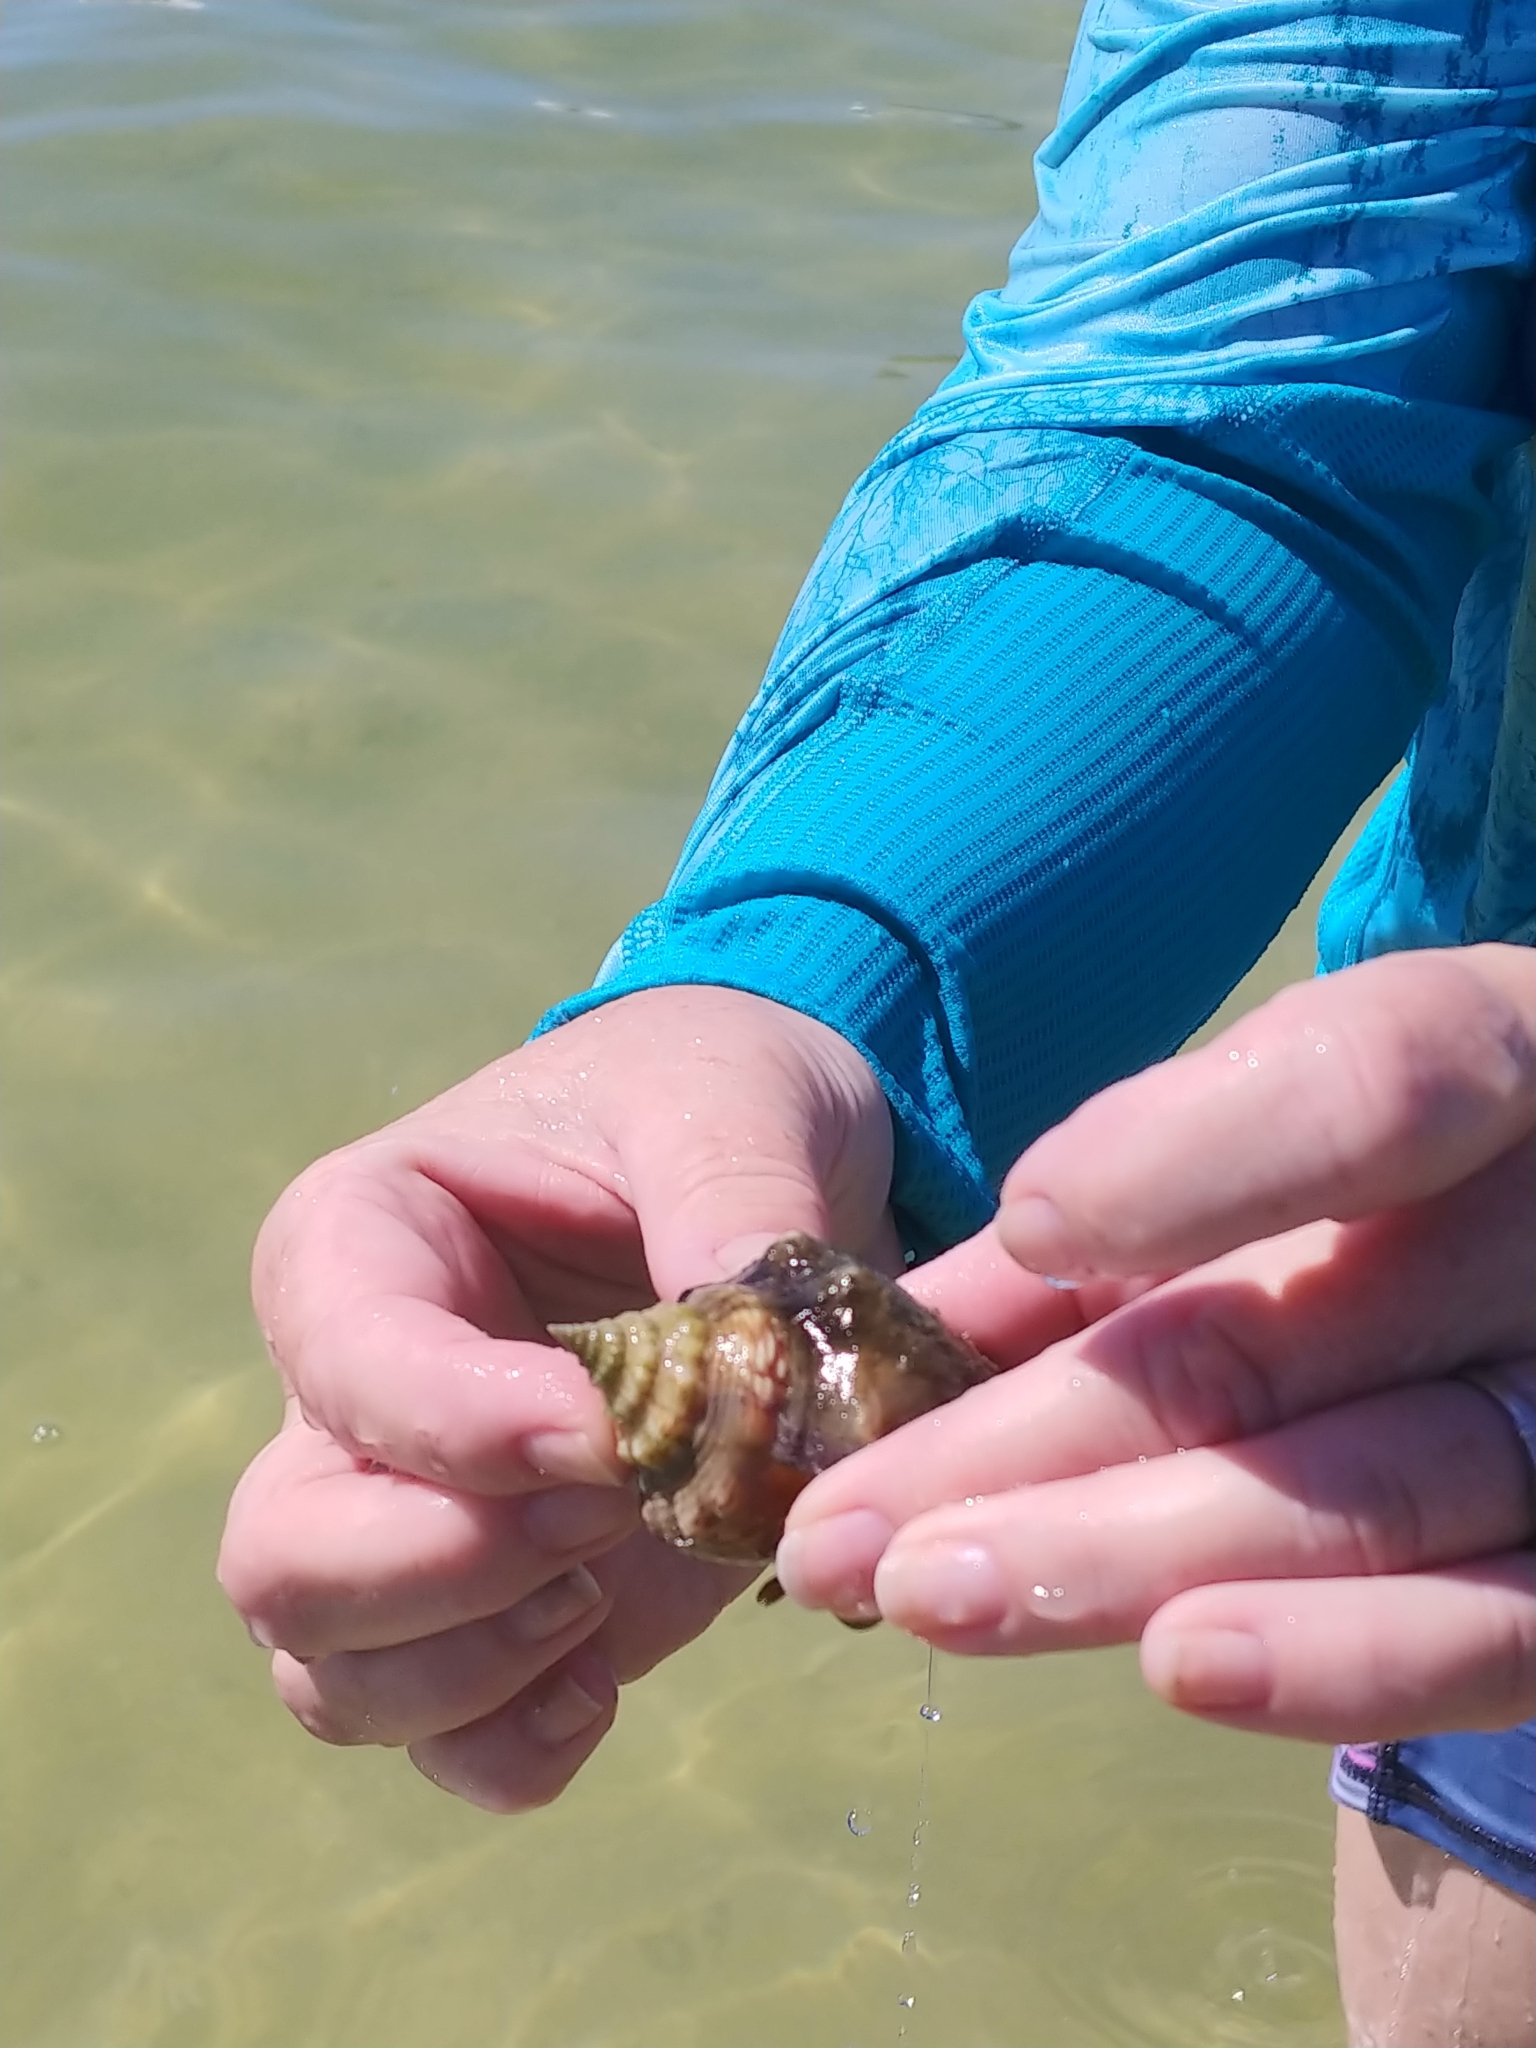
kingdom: Animalia
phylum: Mollusca
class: Gastropoda
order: Littorinimorpha
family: Strombidae
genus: Strombus
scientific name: Strombus alatus
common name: Florida fighting conch
